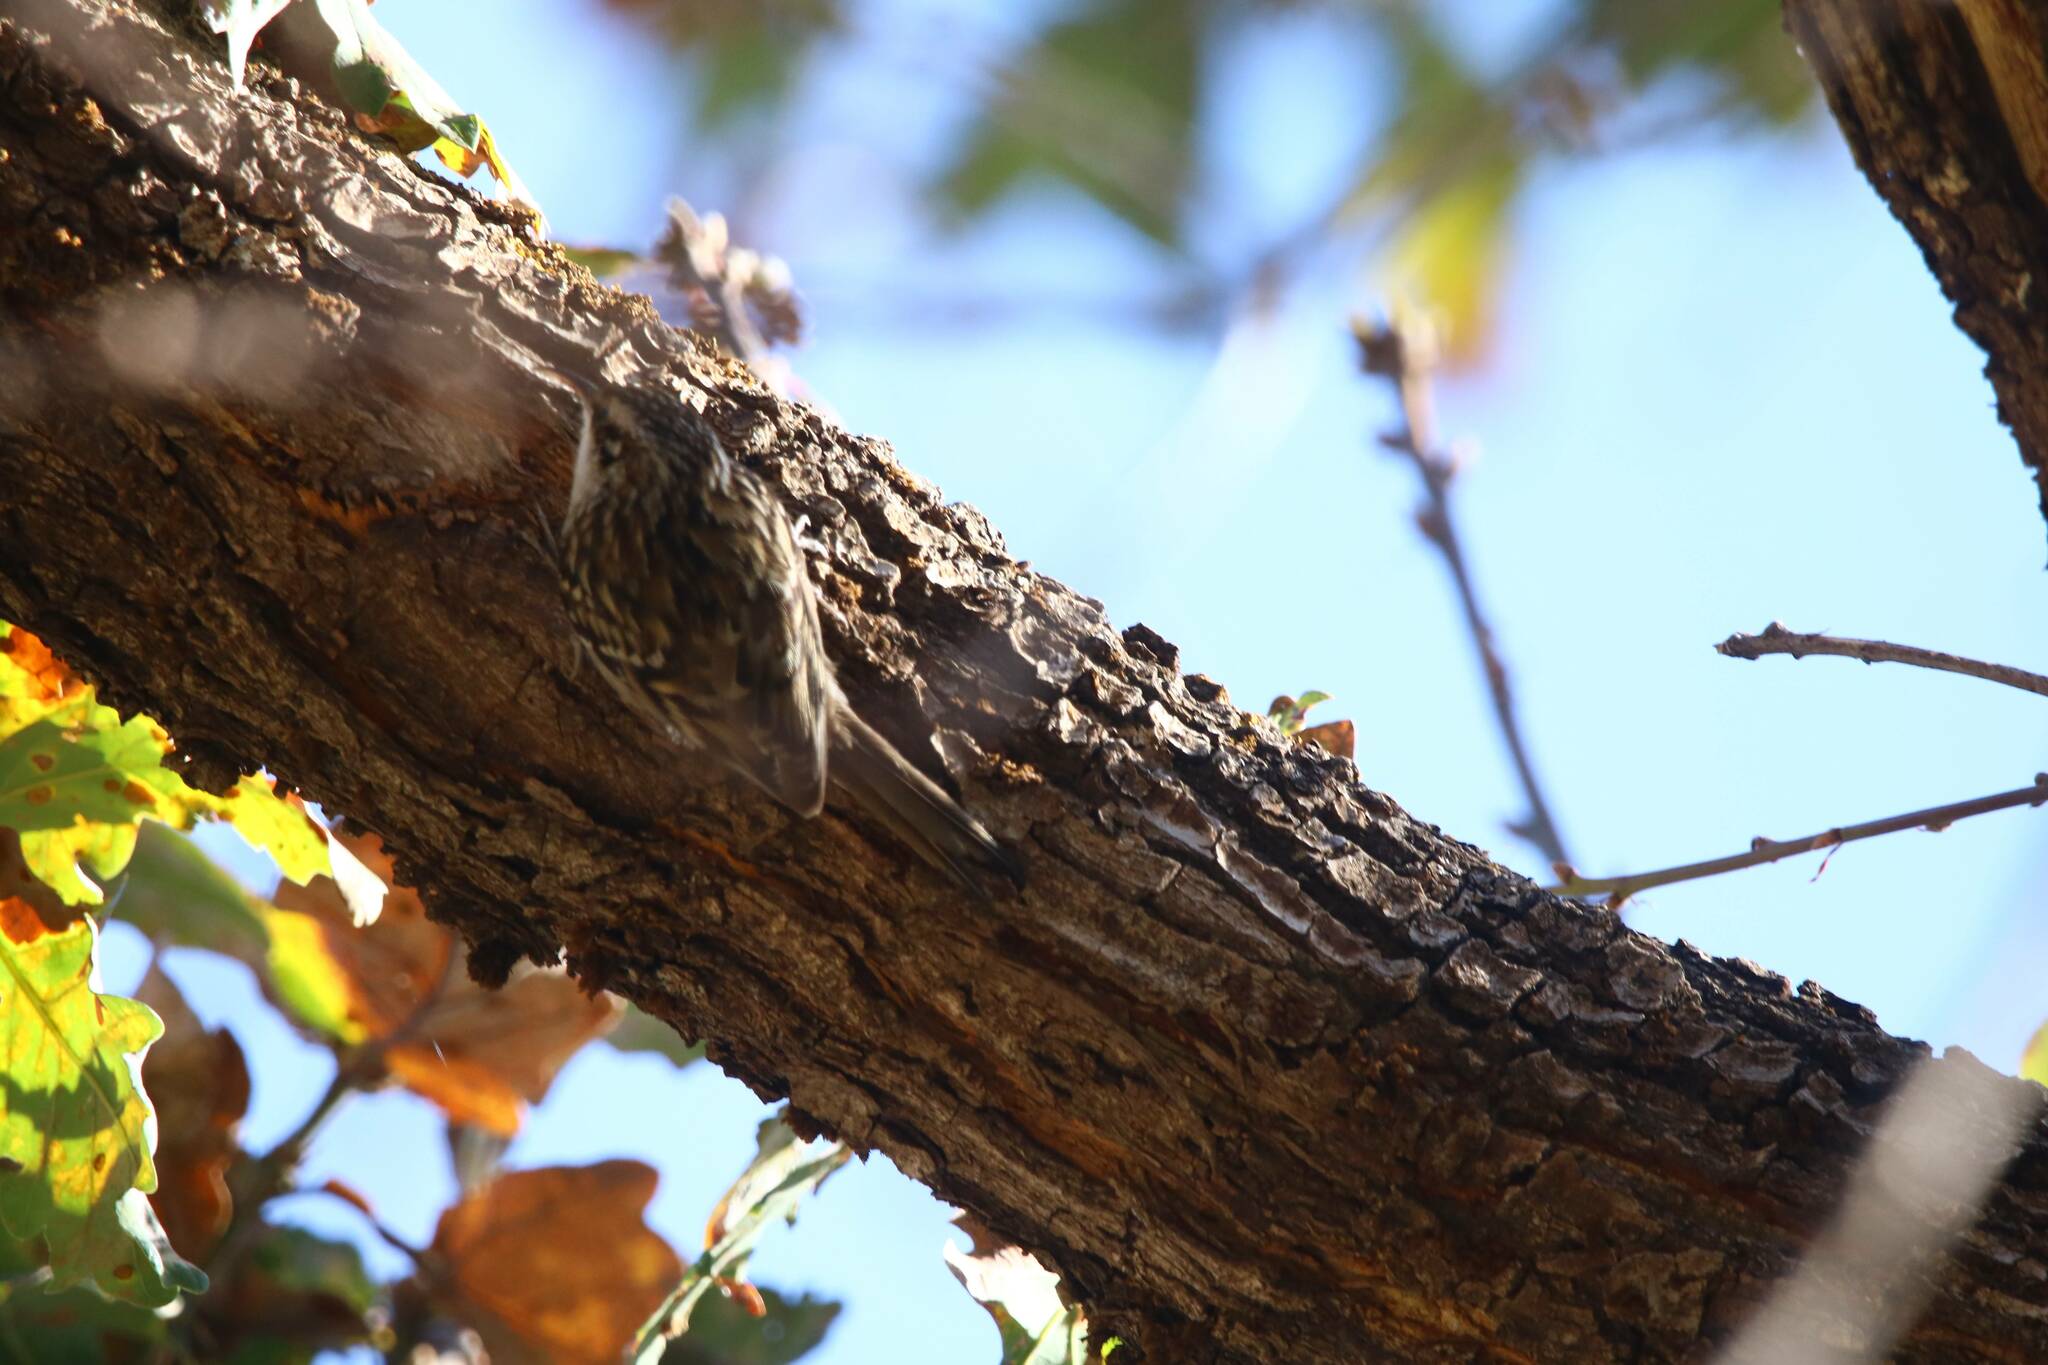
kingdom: Animalia
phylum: Chordata
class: Aves
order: Passeriformes
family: Certhiidae
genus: Certhia
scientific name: Certhia brachydactyla
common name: Short-toed treecreeper
